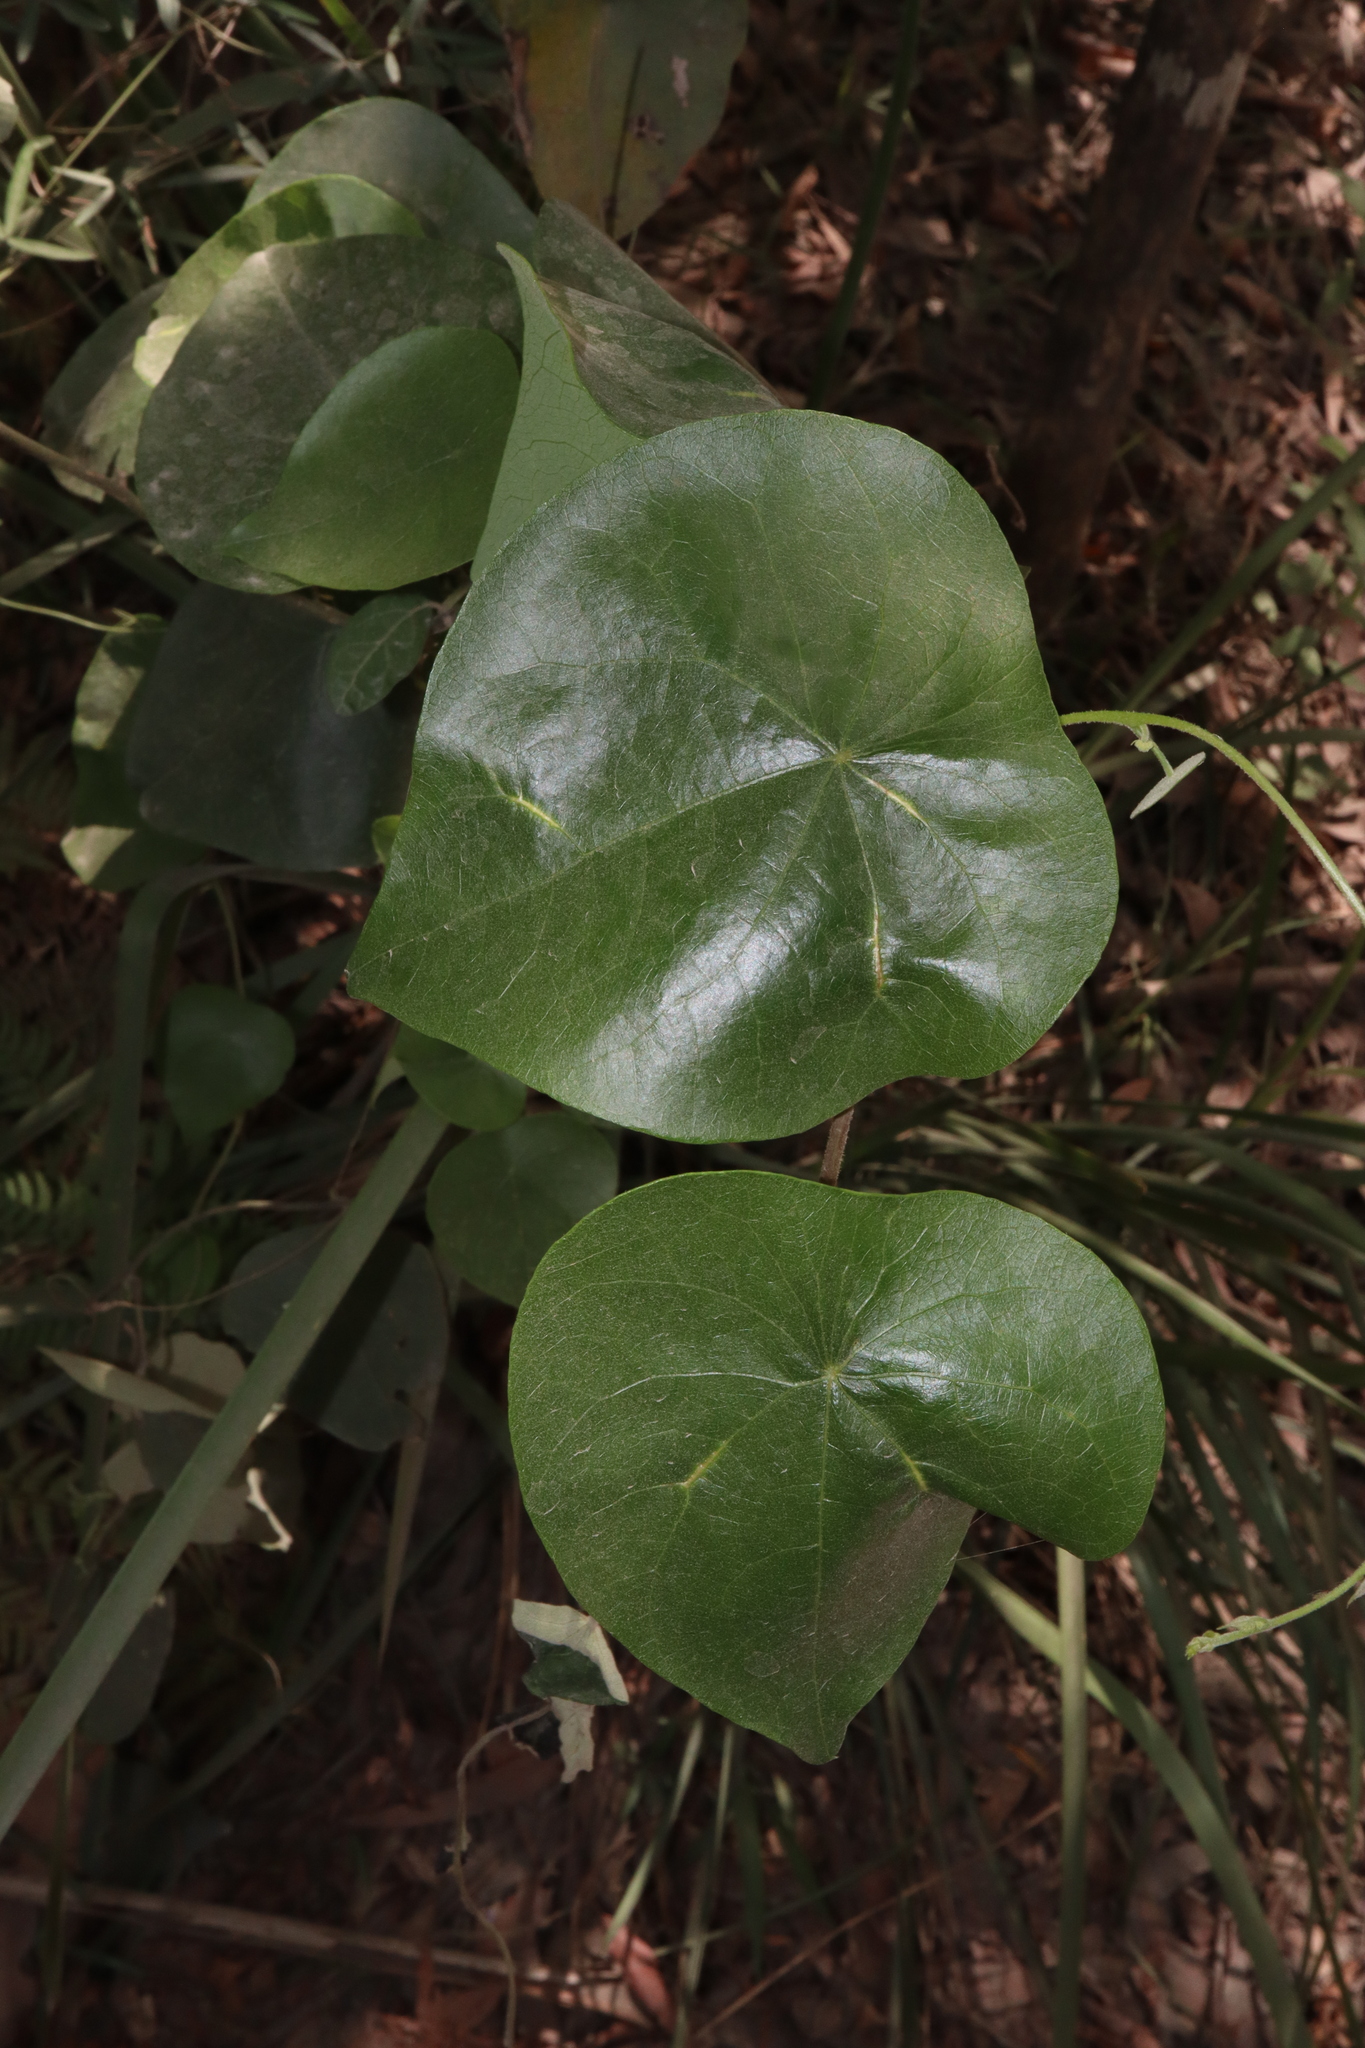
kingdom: Plantae
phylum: Tracheophyta
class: Magnoliopsida
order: Ranunculales
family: Menispermaceae
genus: Stephania
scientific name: Stephania japonica
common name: Snake vine
